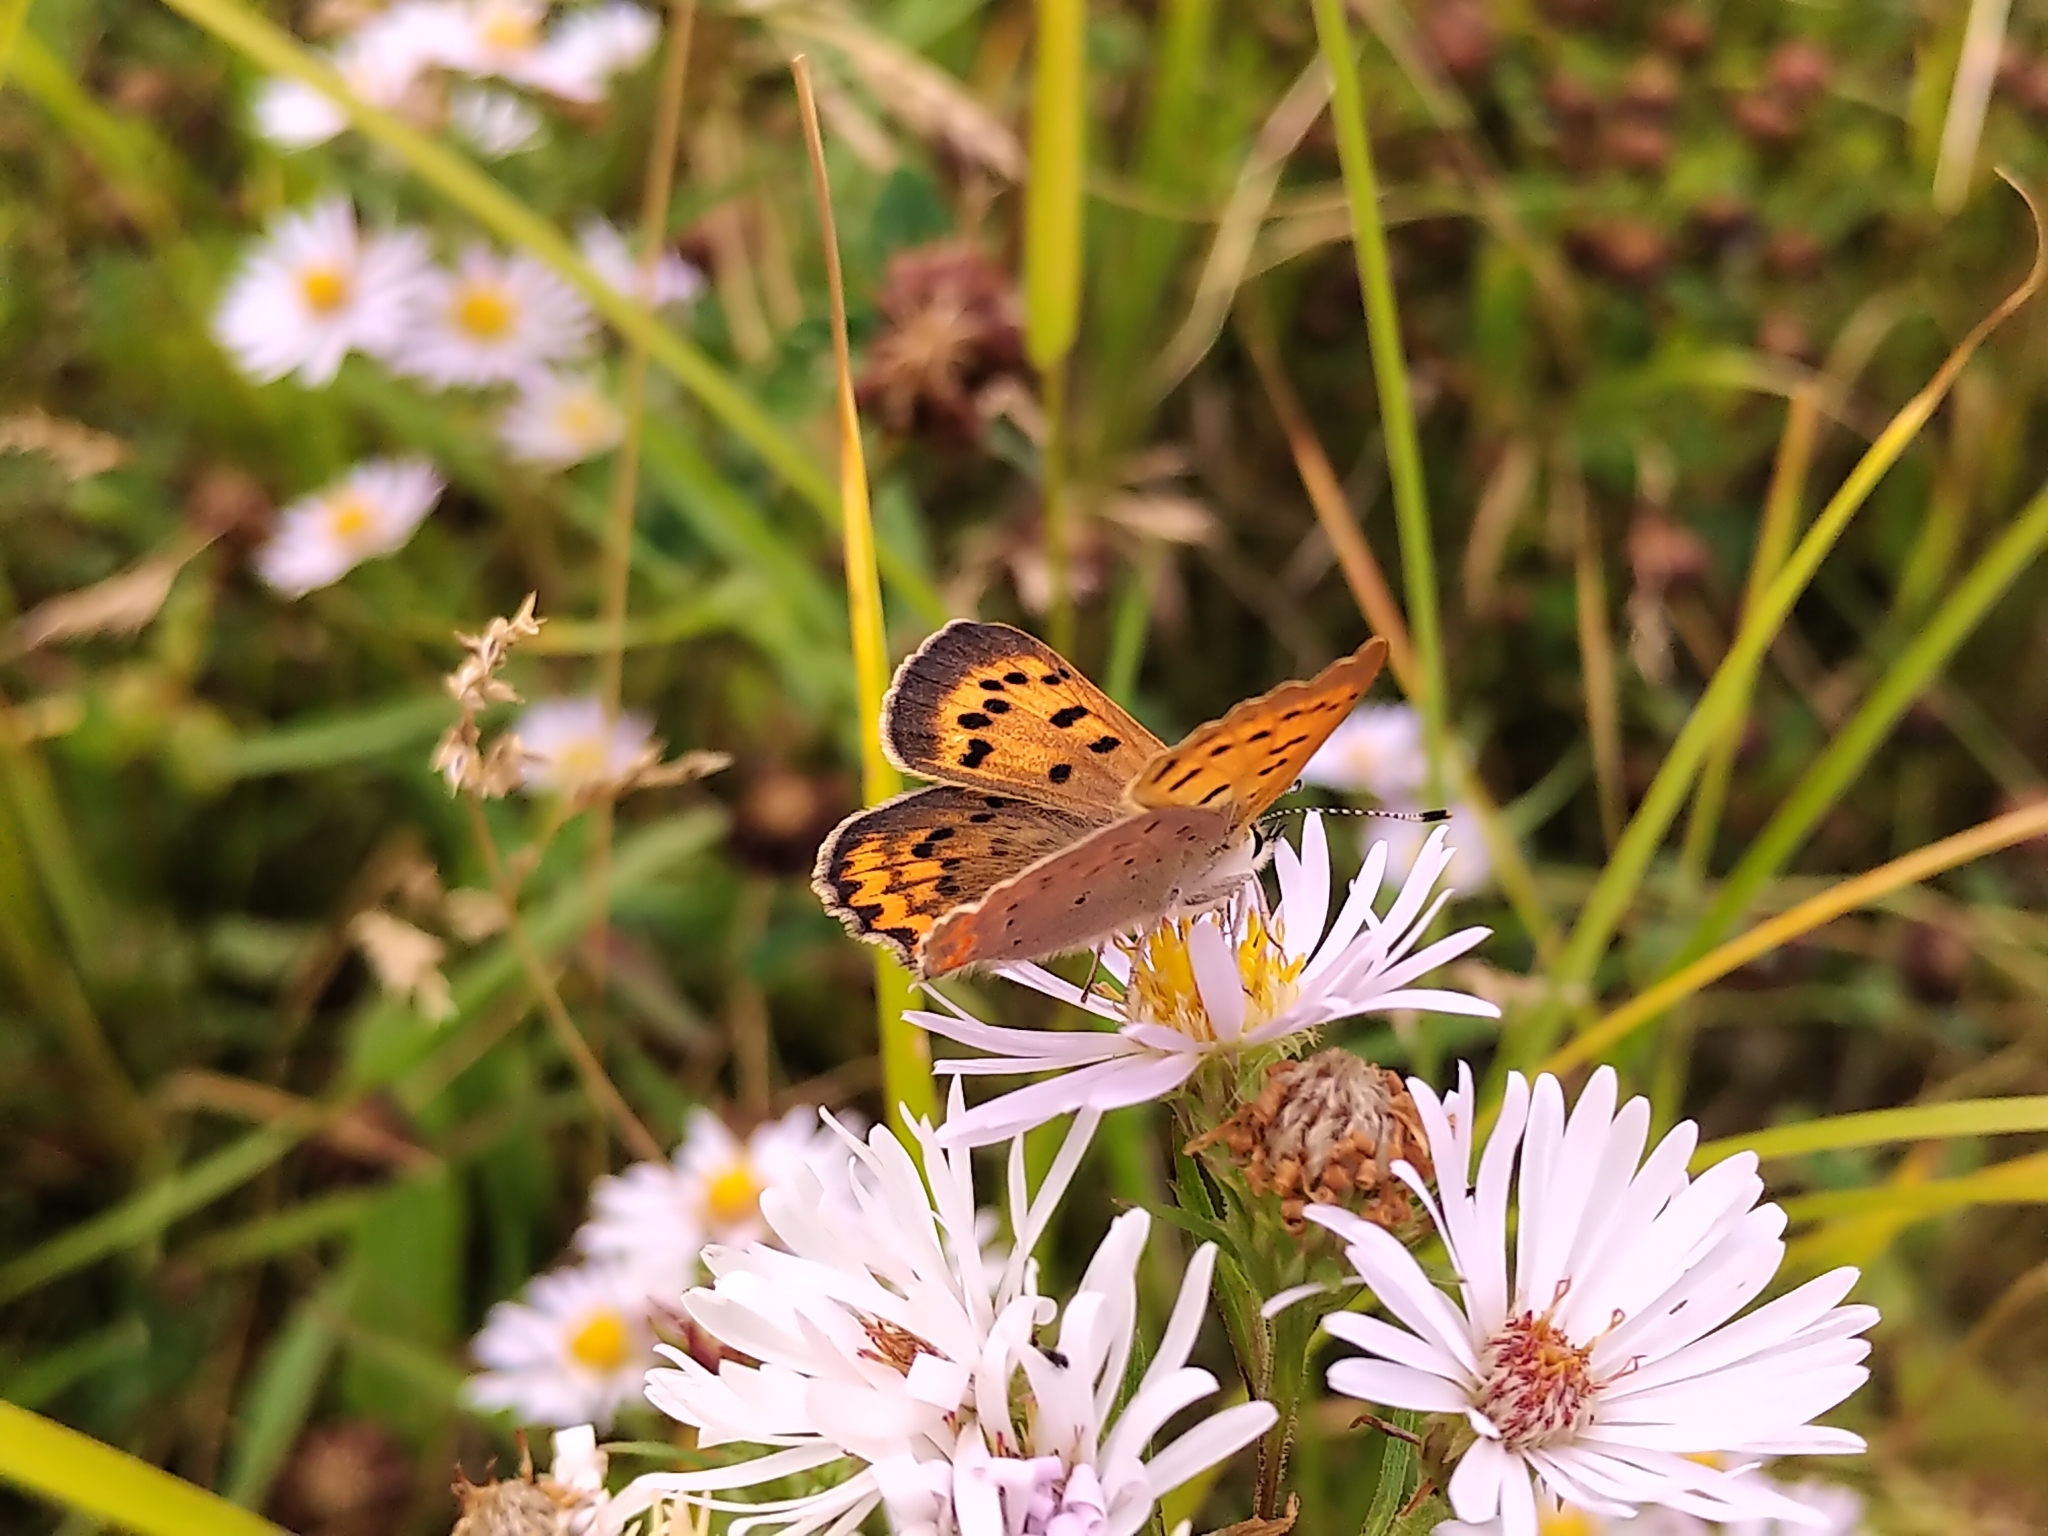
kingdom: Animalia
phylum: Arthropoda
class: Insecta
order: Lepidoptera
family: Lycaenidae
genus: Tharsalea
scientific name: Tharsalea helloides
